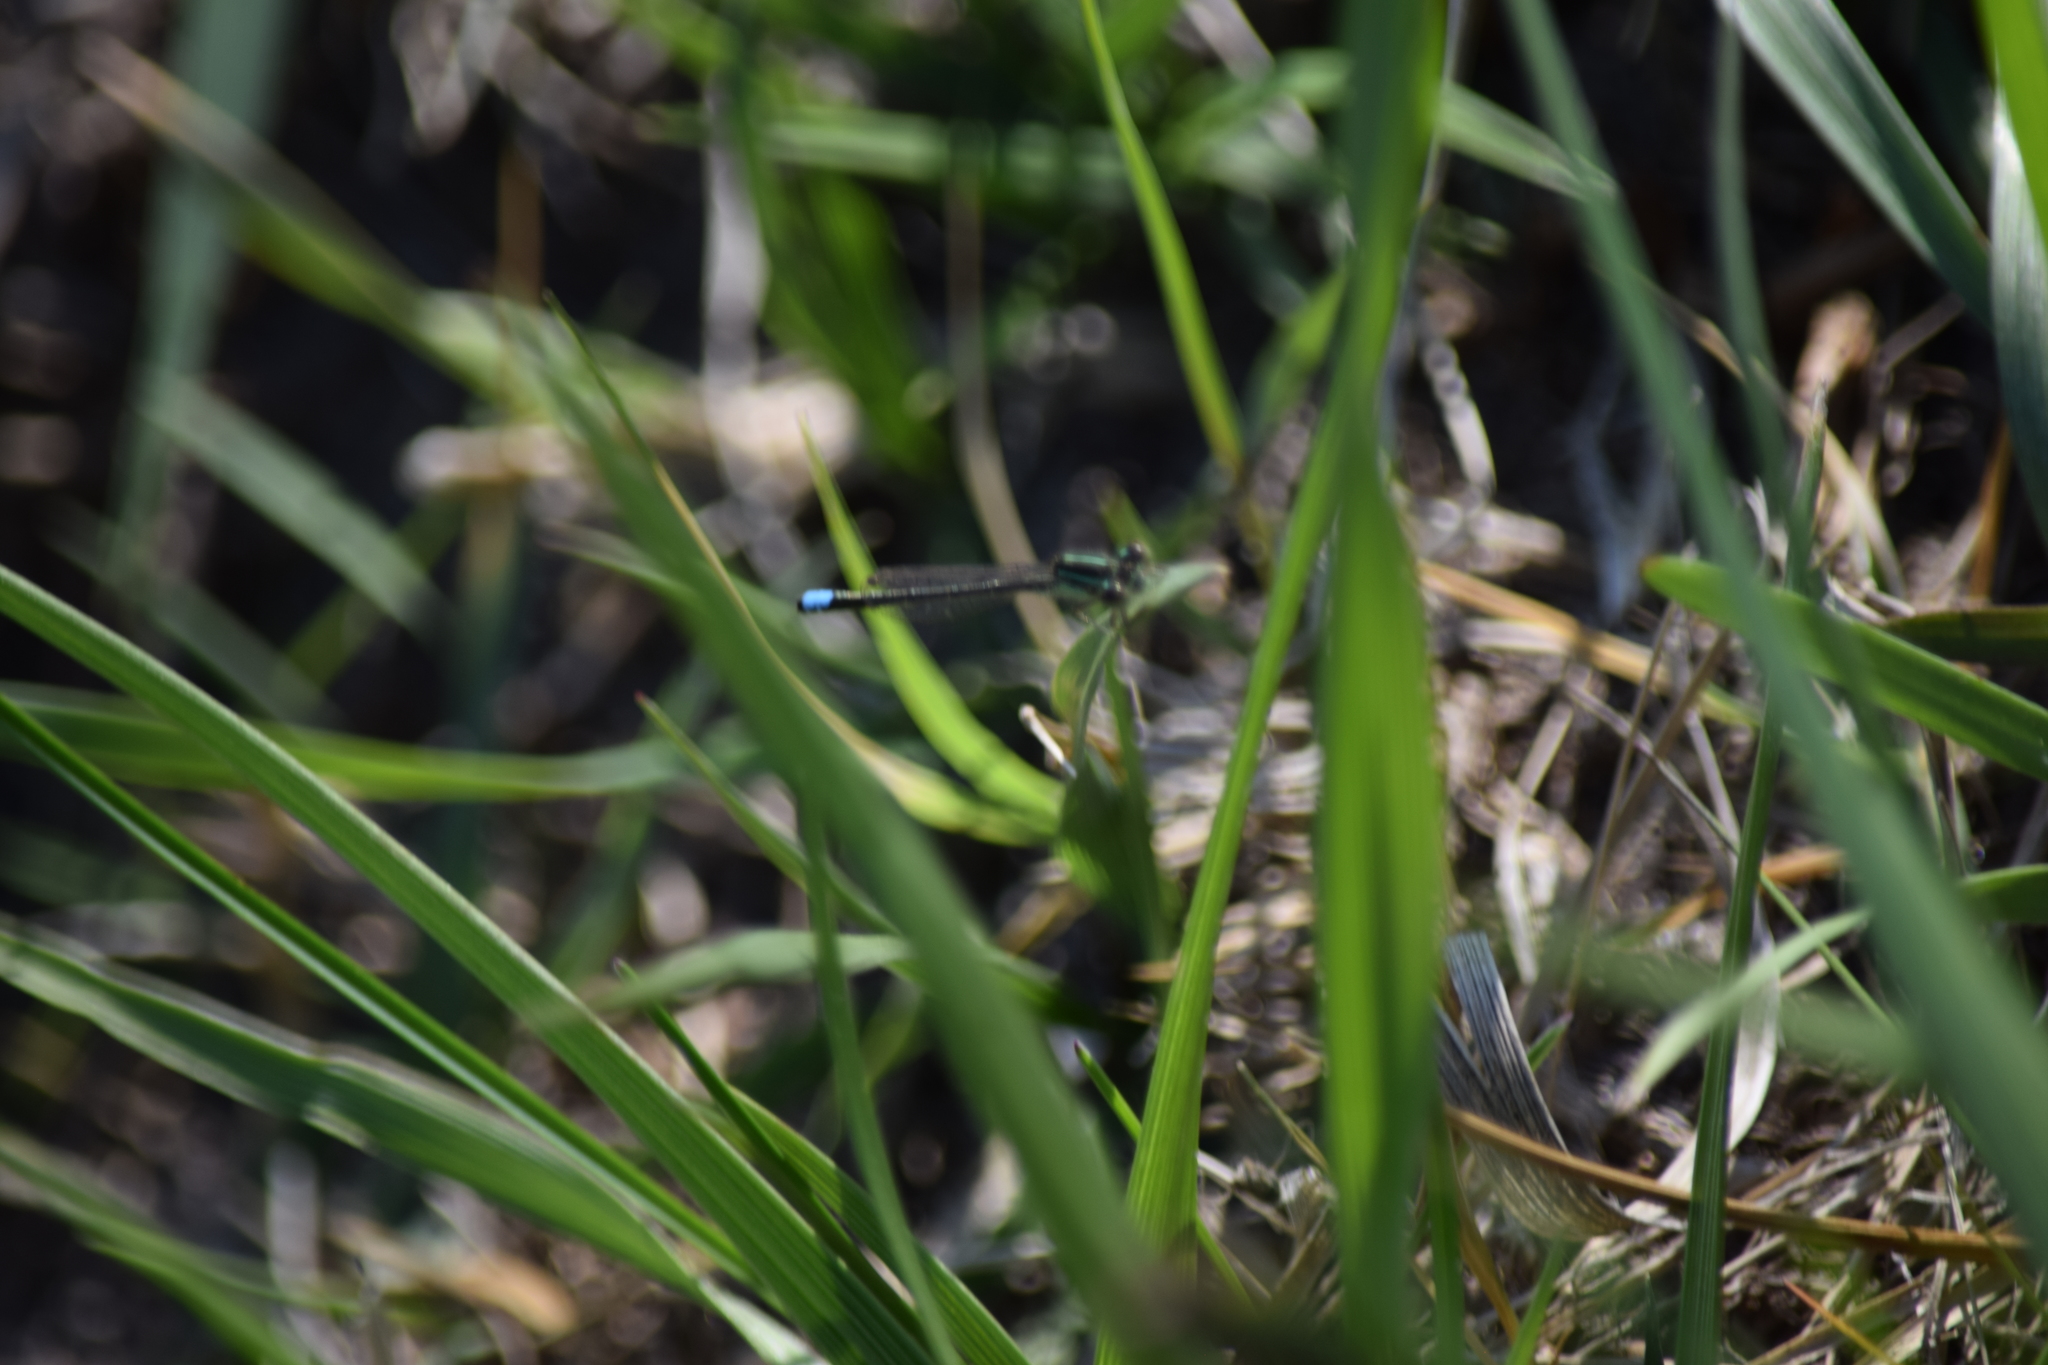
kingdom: Animalia
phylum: Arthropoda
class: Insecta
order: Odonata
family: Coenagrionidae
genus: Ischnura
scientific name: Ischnura verticalis
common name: Eastern forktail
